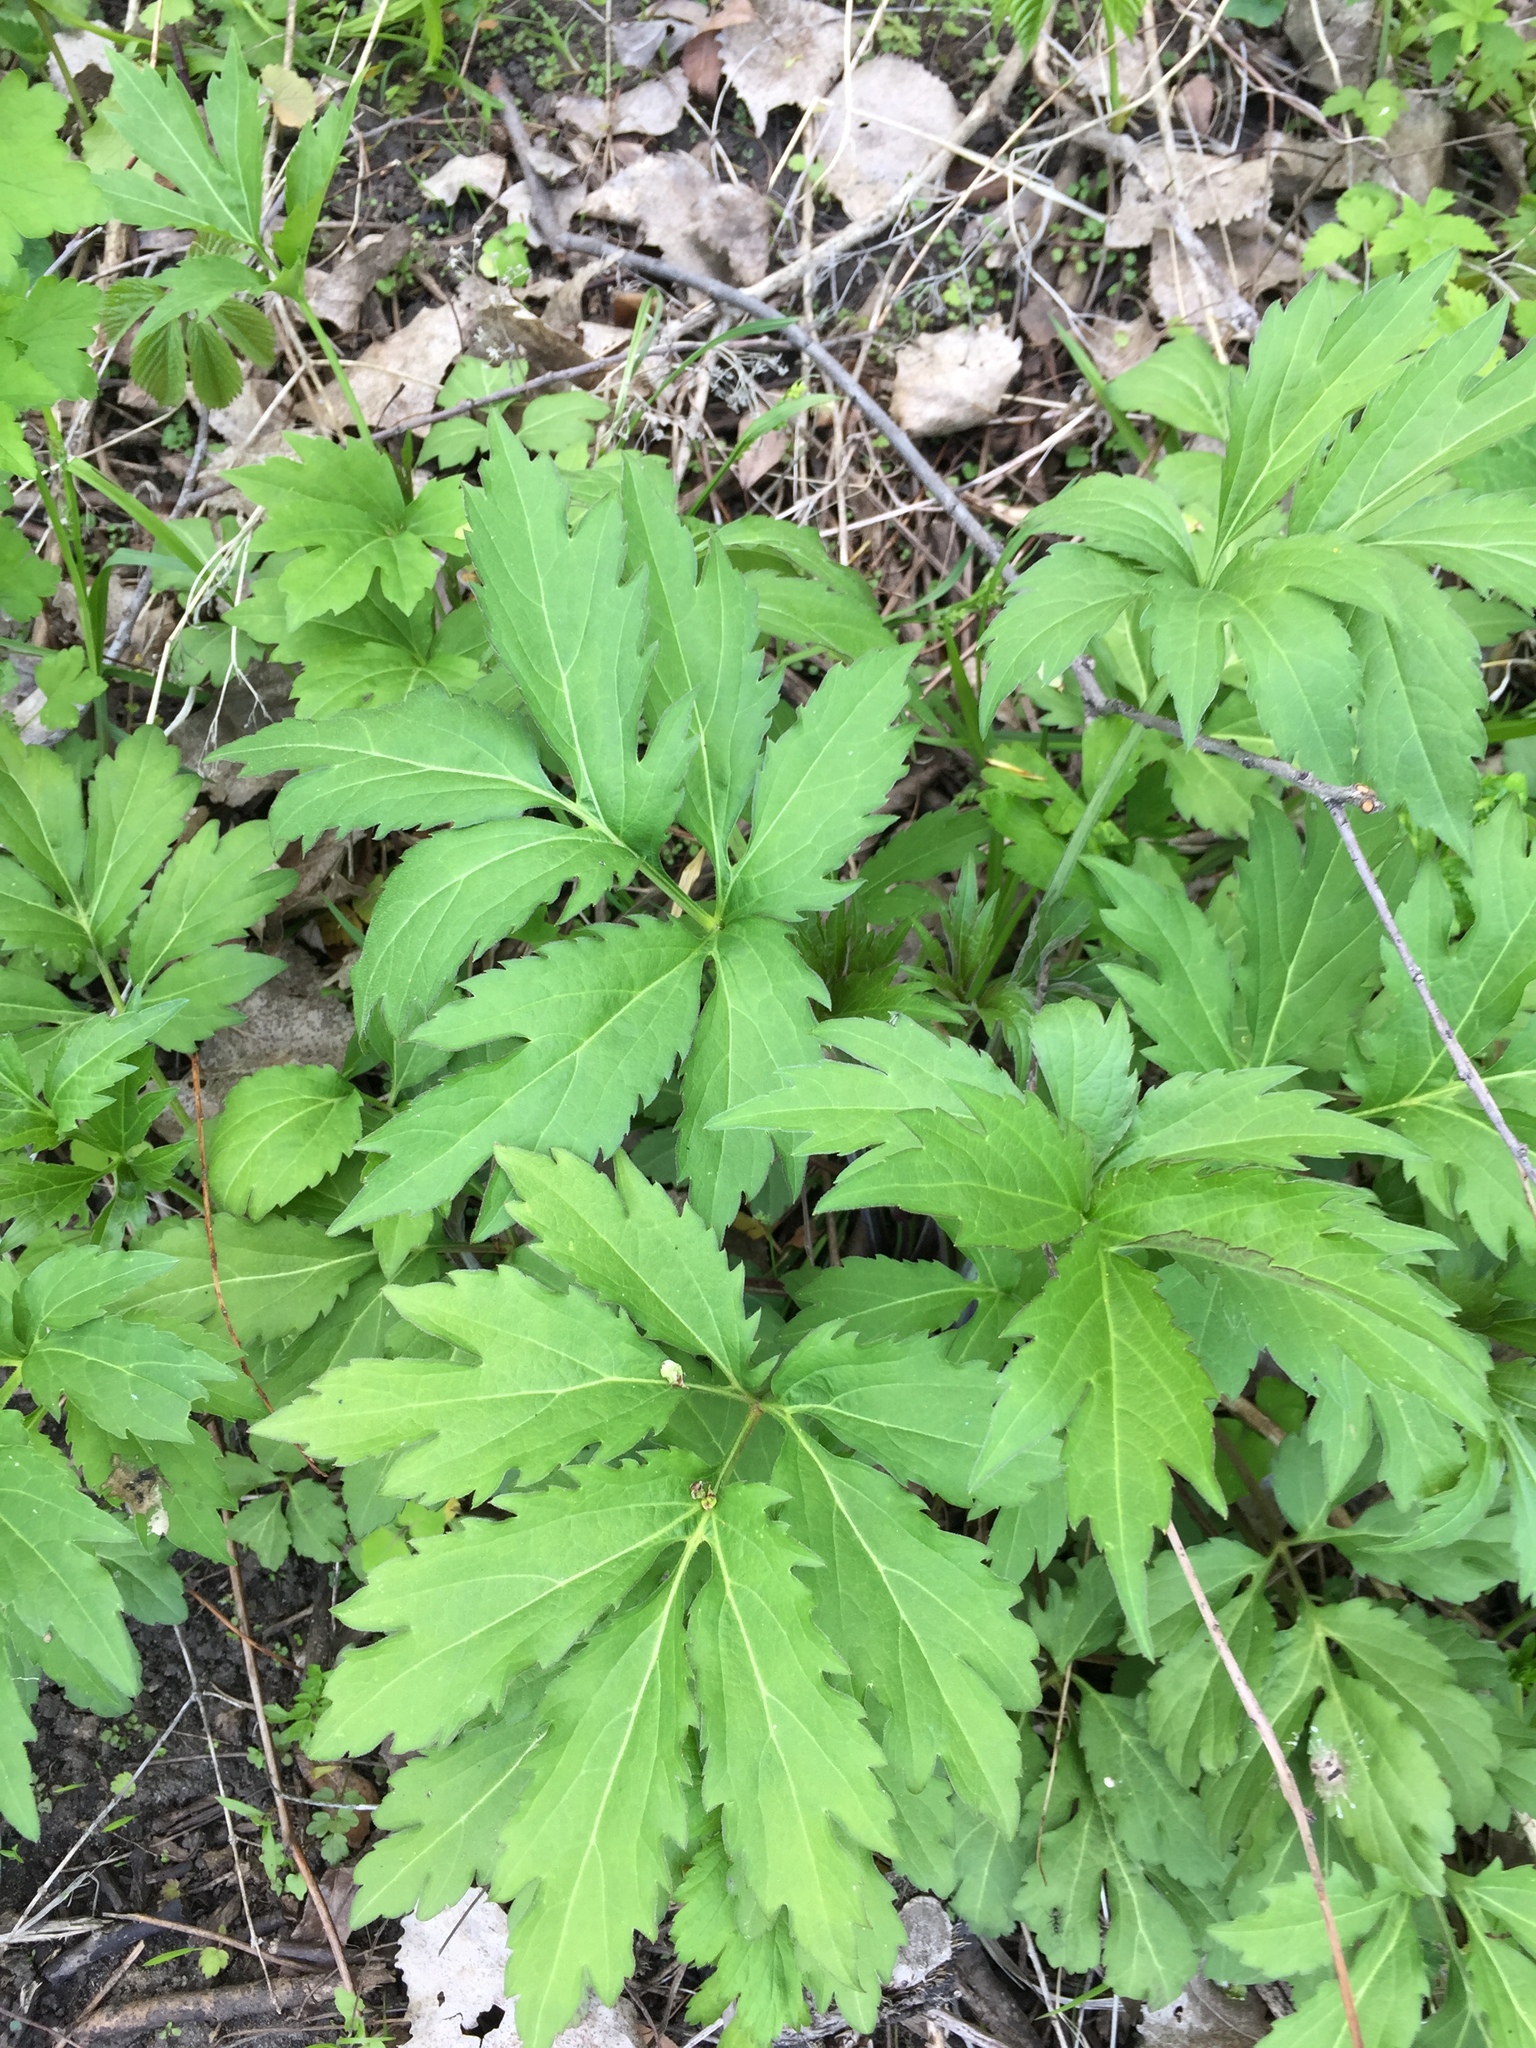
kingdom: Plantae
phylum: Tracheophyta
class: Magnoliopsida
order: Asterales
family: Asteraceae
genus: Rudbeckia
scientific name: Rudbeckia laciniata
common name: Coneflower
